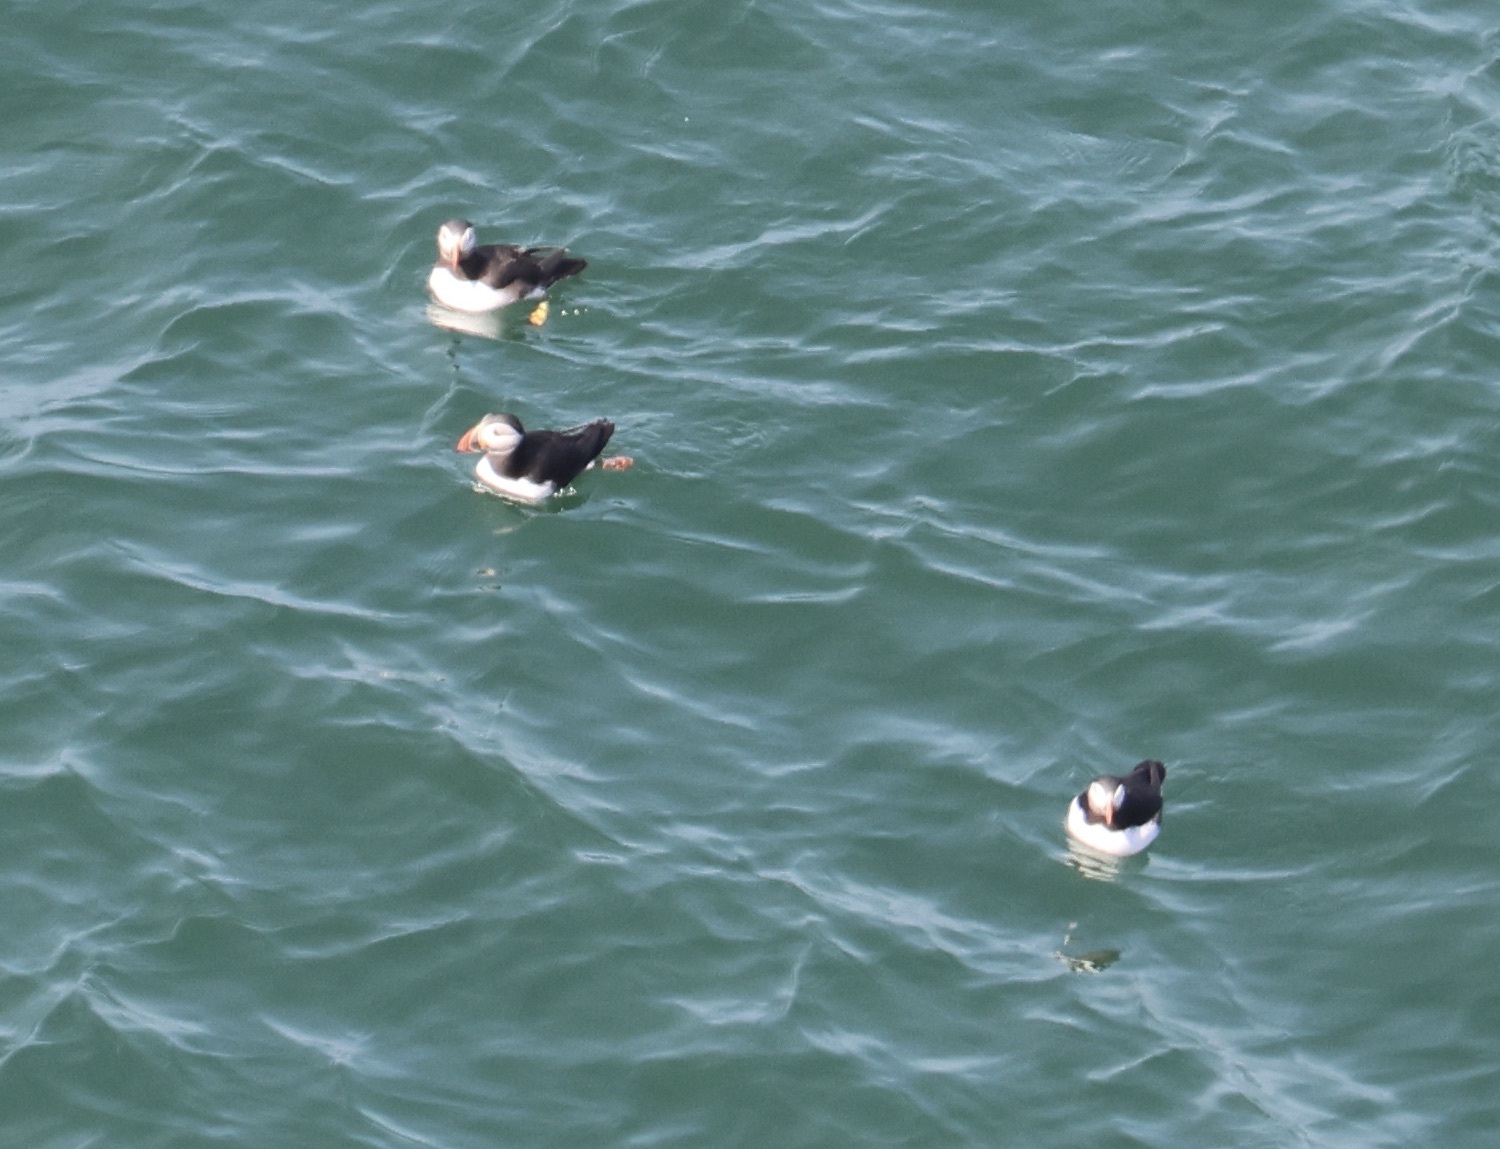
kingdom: Animalia
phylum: Chordata
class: Aves
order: Charadriiformes
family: Alcidae
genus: Fratercula
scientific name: Fratercula arctica
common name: Atlantic puffin
